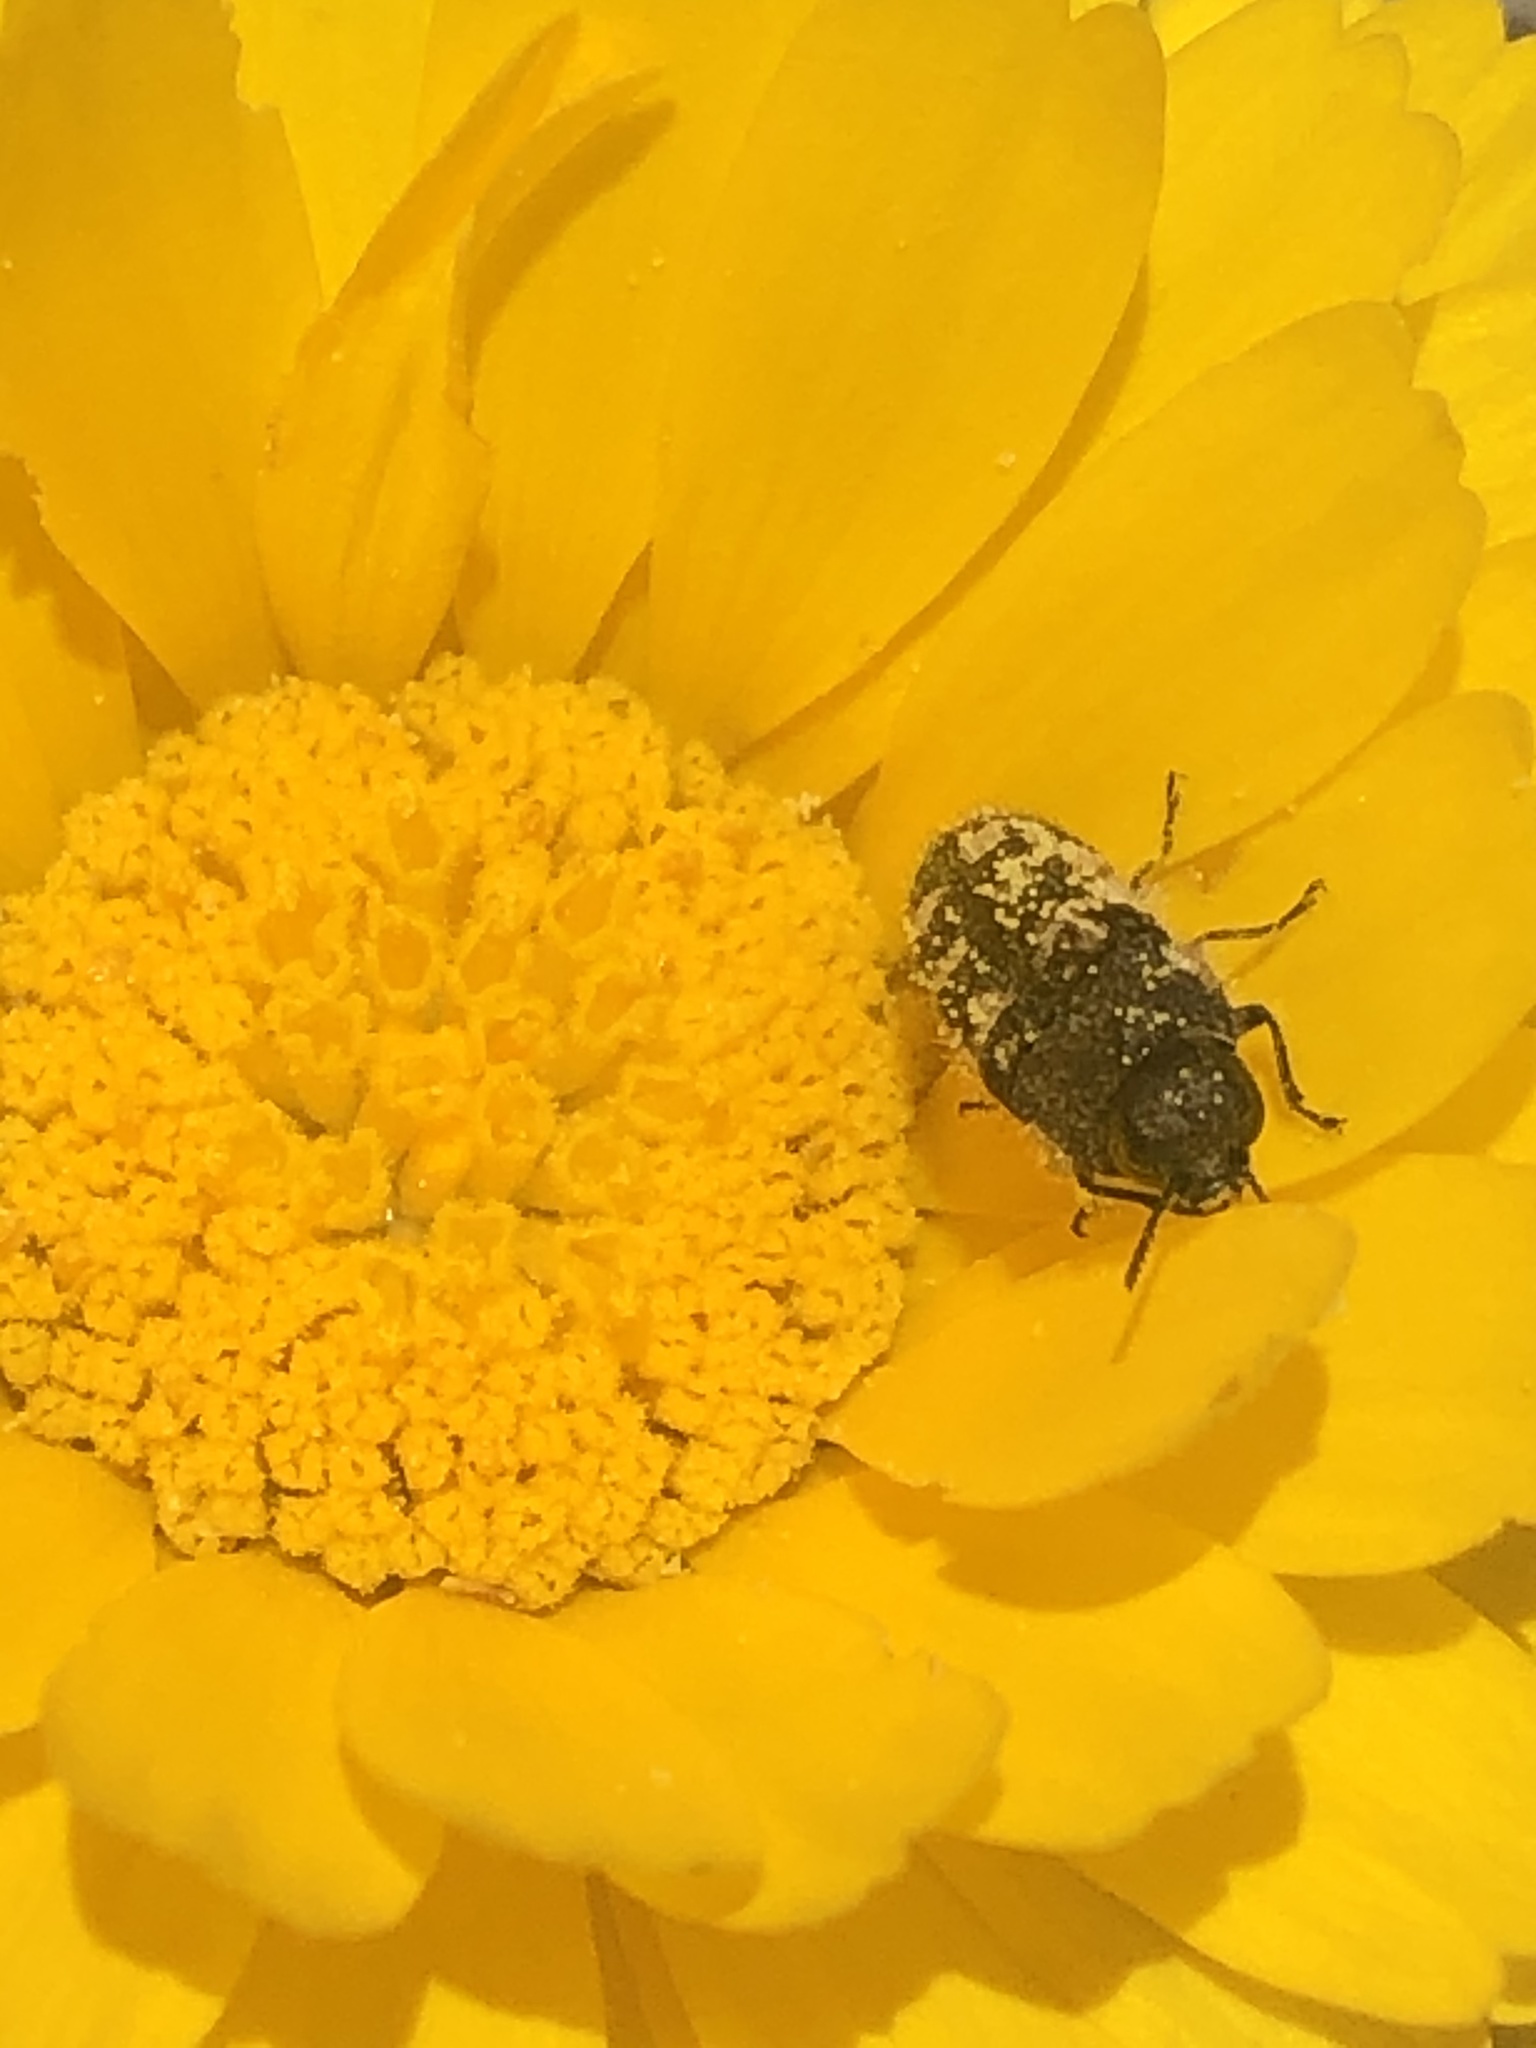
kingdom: Animalia
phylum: Arthropoda
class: Insecta
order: Coleoptera
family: Buprestidae
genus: Acmaeodera
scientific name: Acmaeodera bowditchi
